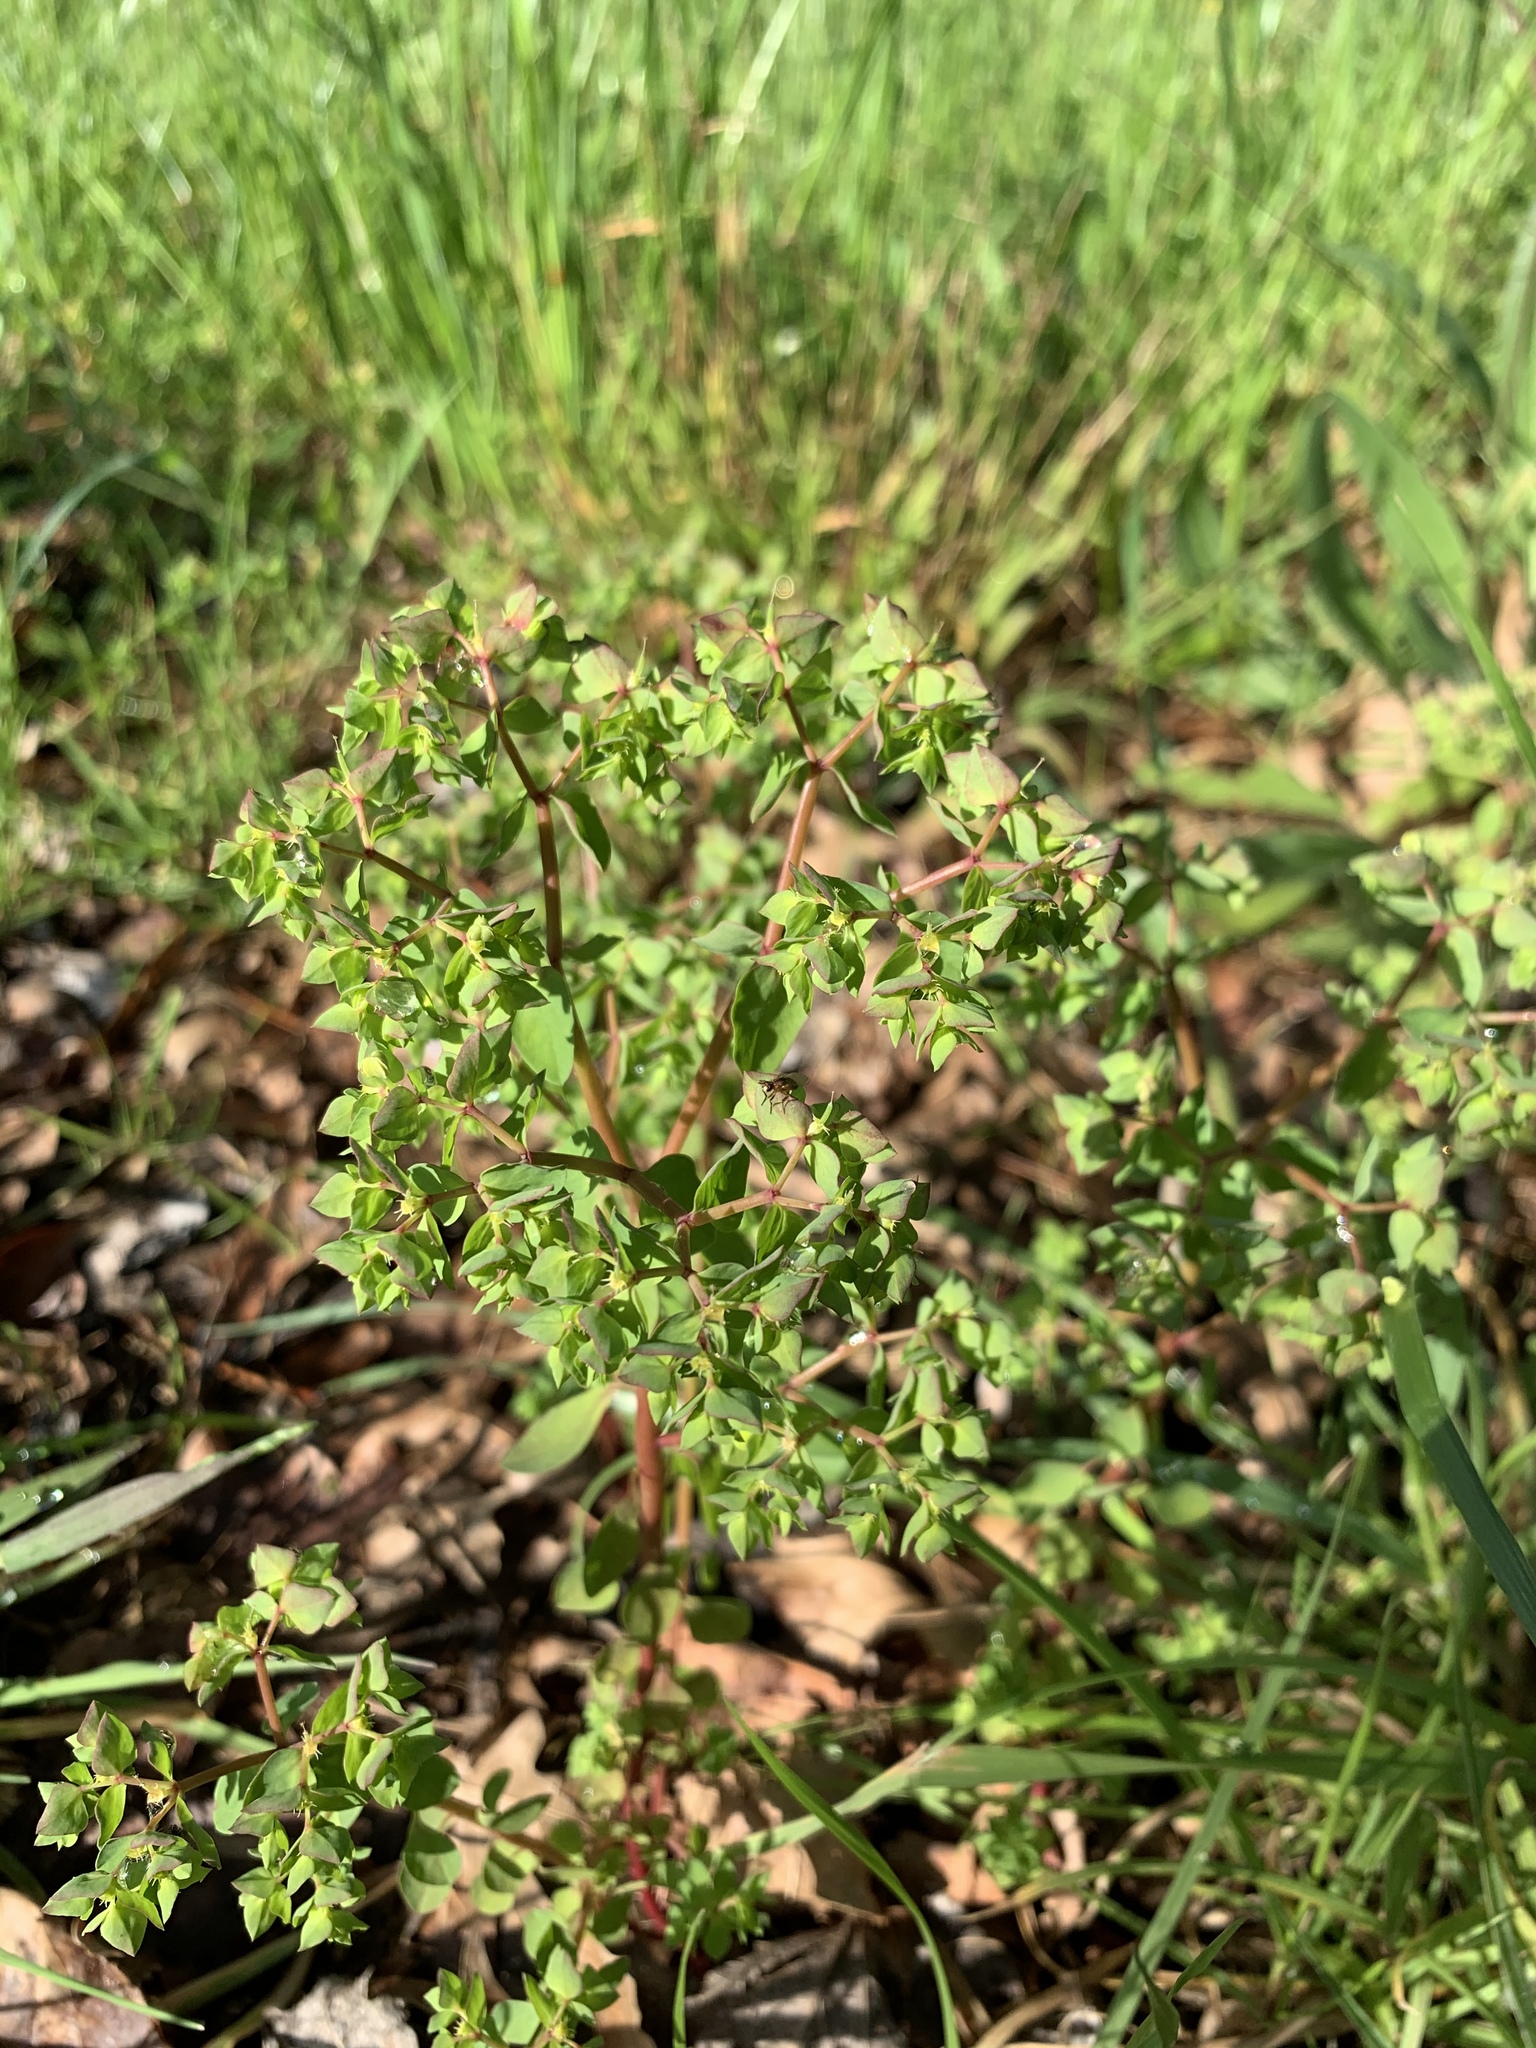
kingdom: Plantae
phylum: Tracheophyta
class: Magnoliopsida
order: Malpighiales
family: Euphorbiaceae
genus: Euphorbia
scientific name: Euphorbia peplus
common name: Petty spurge
